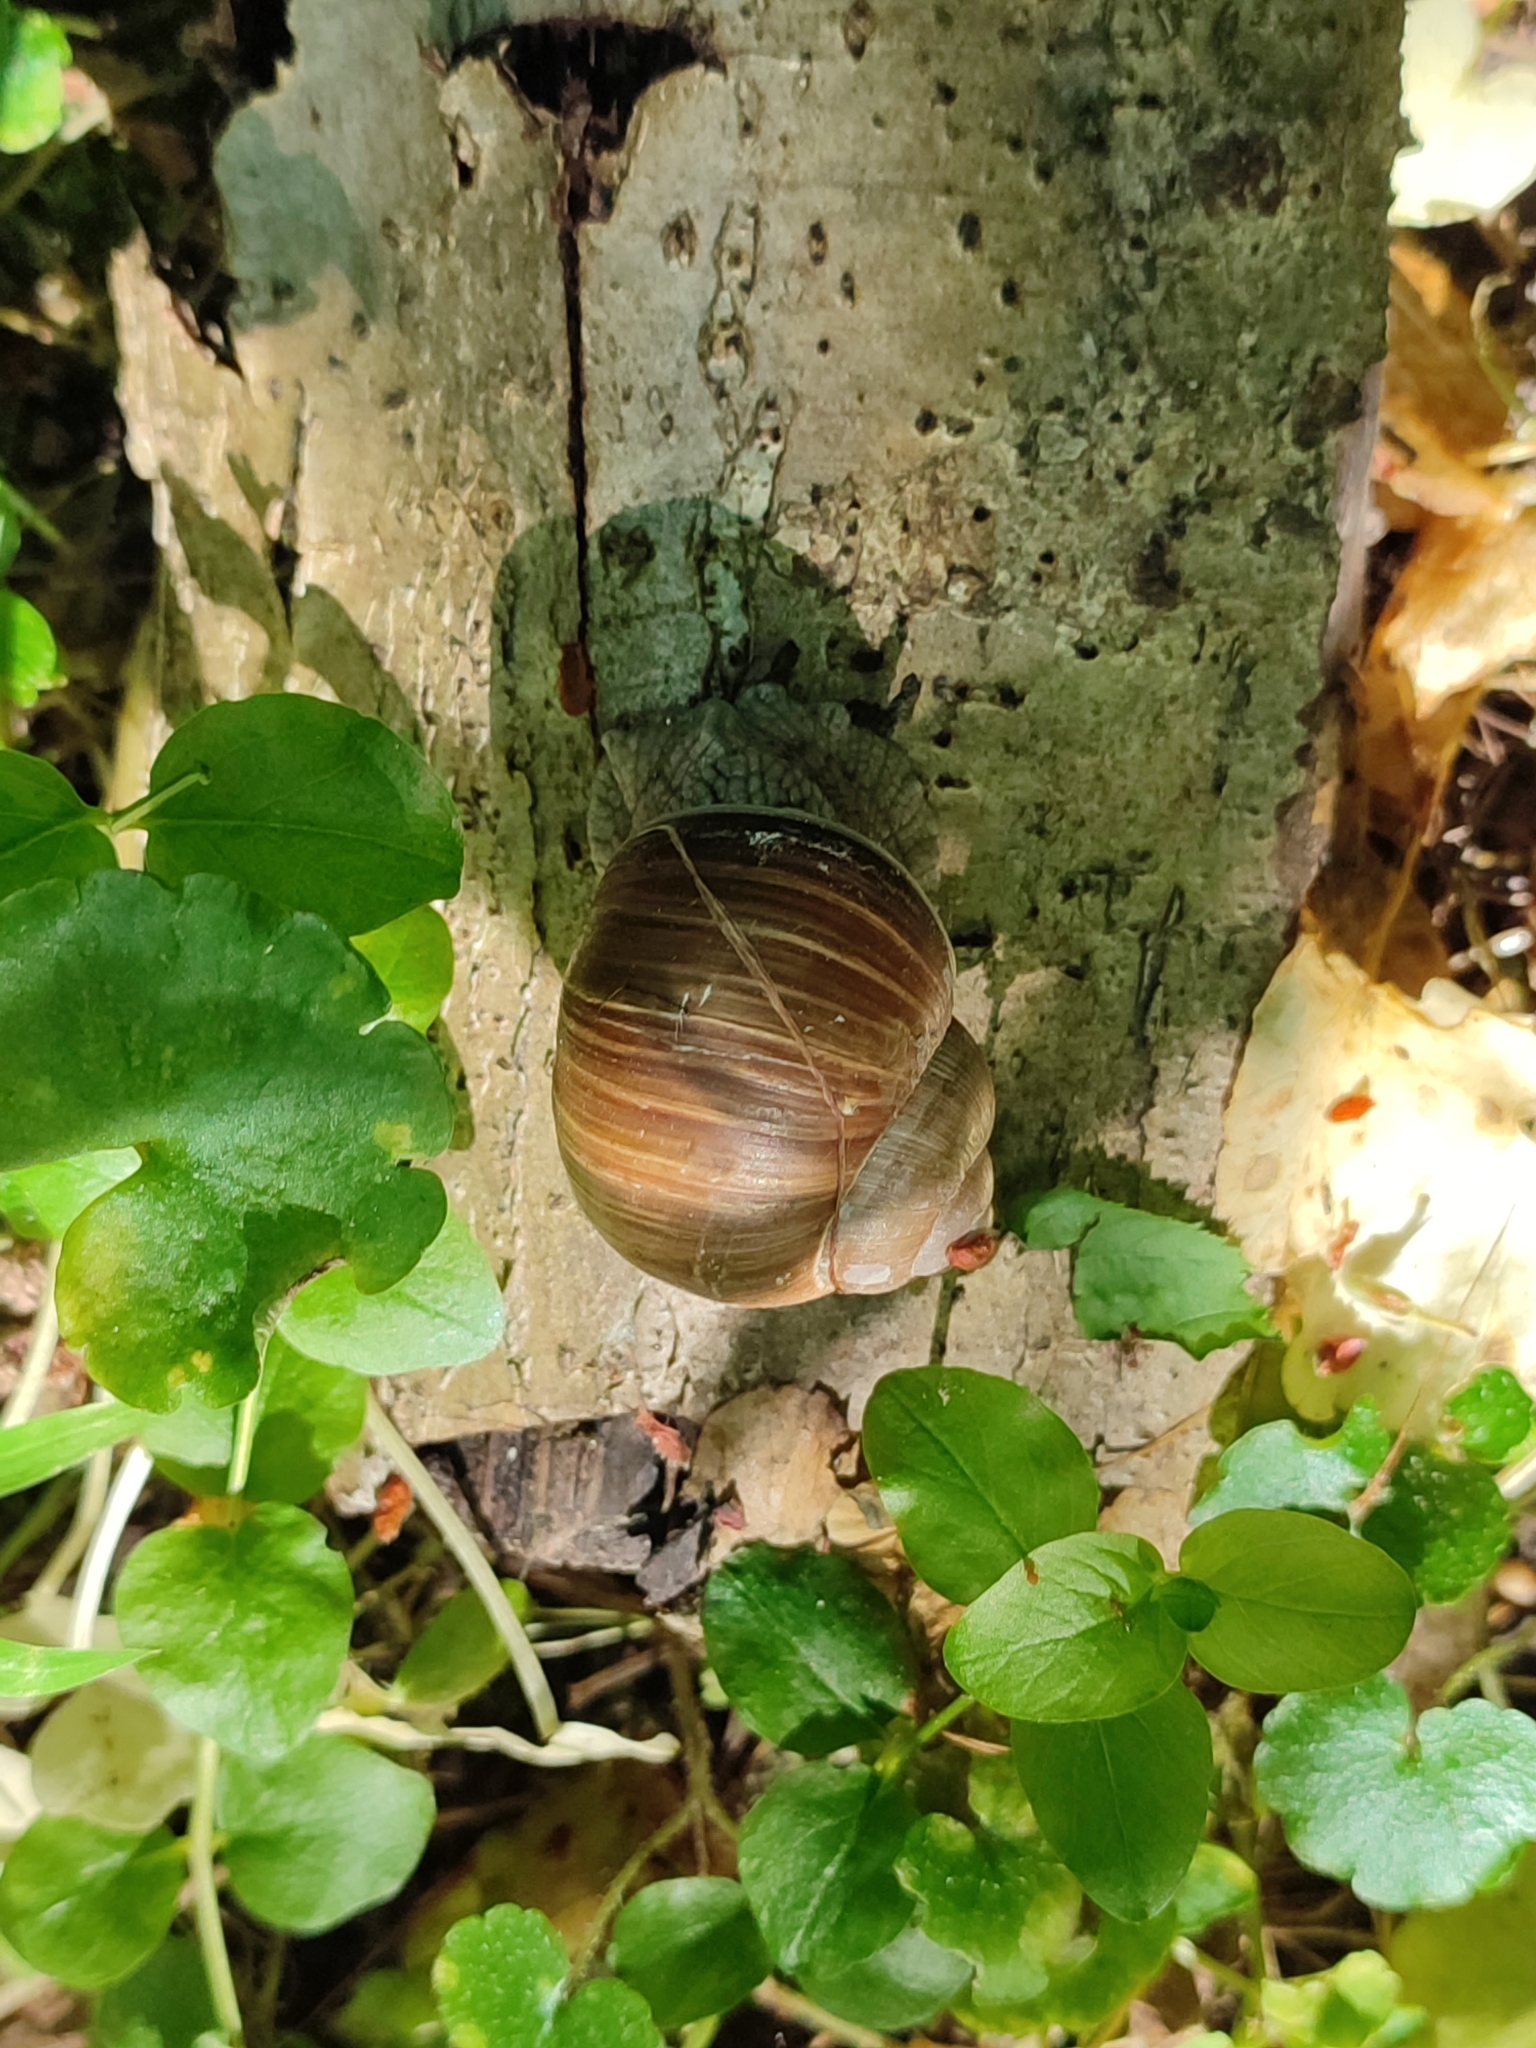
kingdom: Animalia
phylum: Mollusca
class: Gastropoda
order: Stylommatophora
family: Helicidae
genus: Helix
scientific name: Helix pomatia
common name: Roman snail
